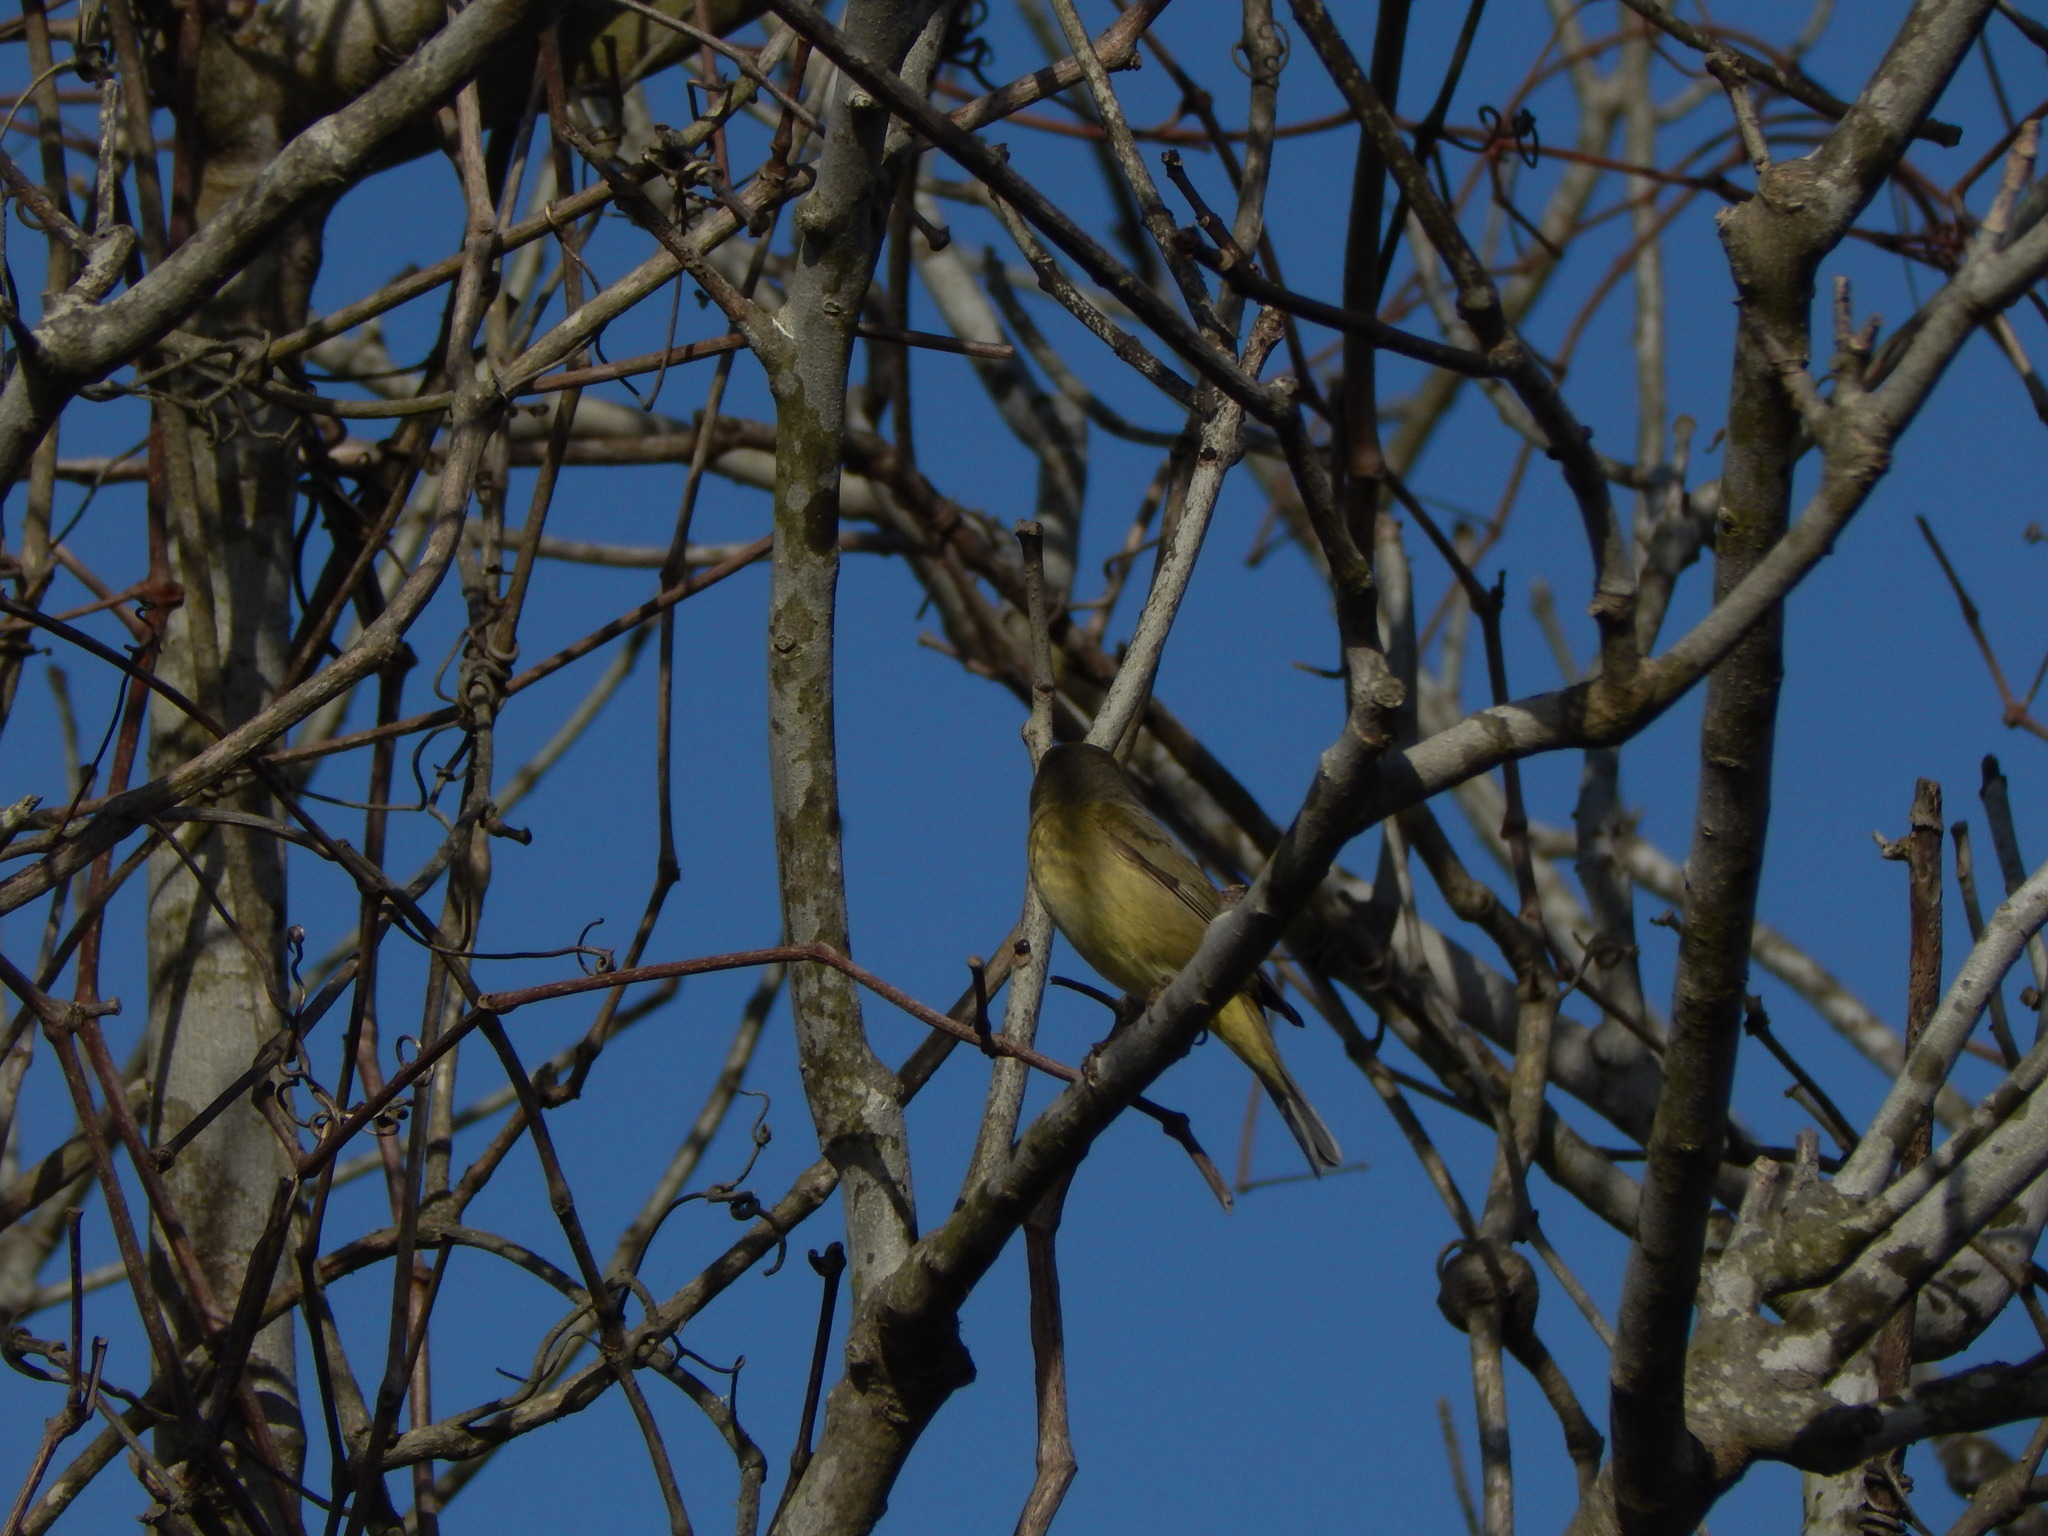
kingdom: Animalia
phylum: Chordata
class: Aves
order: Passeriformes
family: Parulidae
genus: Leiothlypis
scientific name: Leiothlypis celata
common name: Orange-crowned warbler
